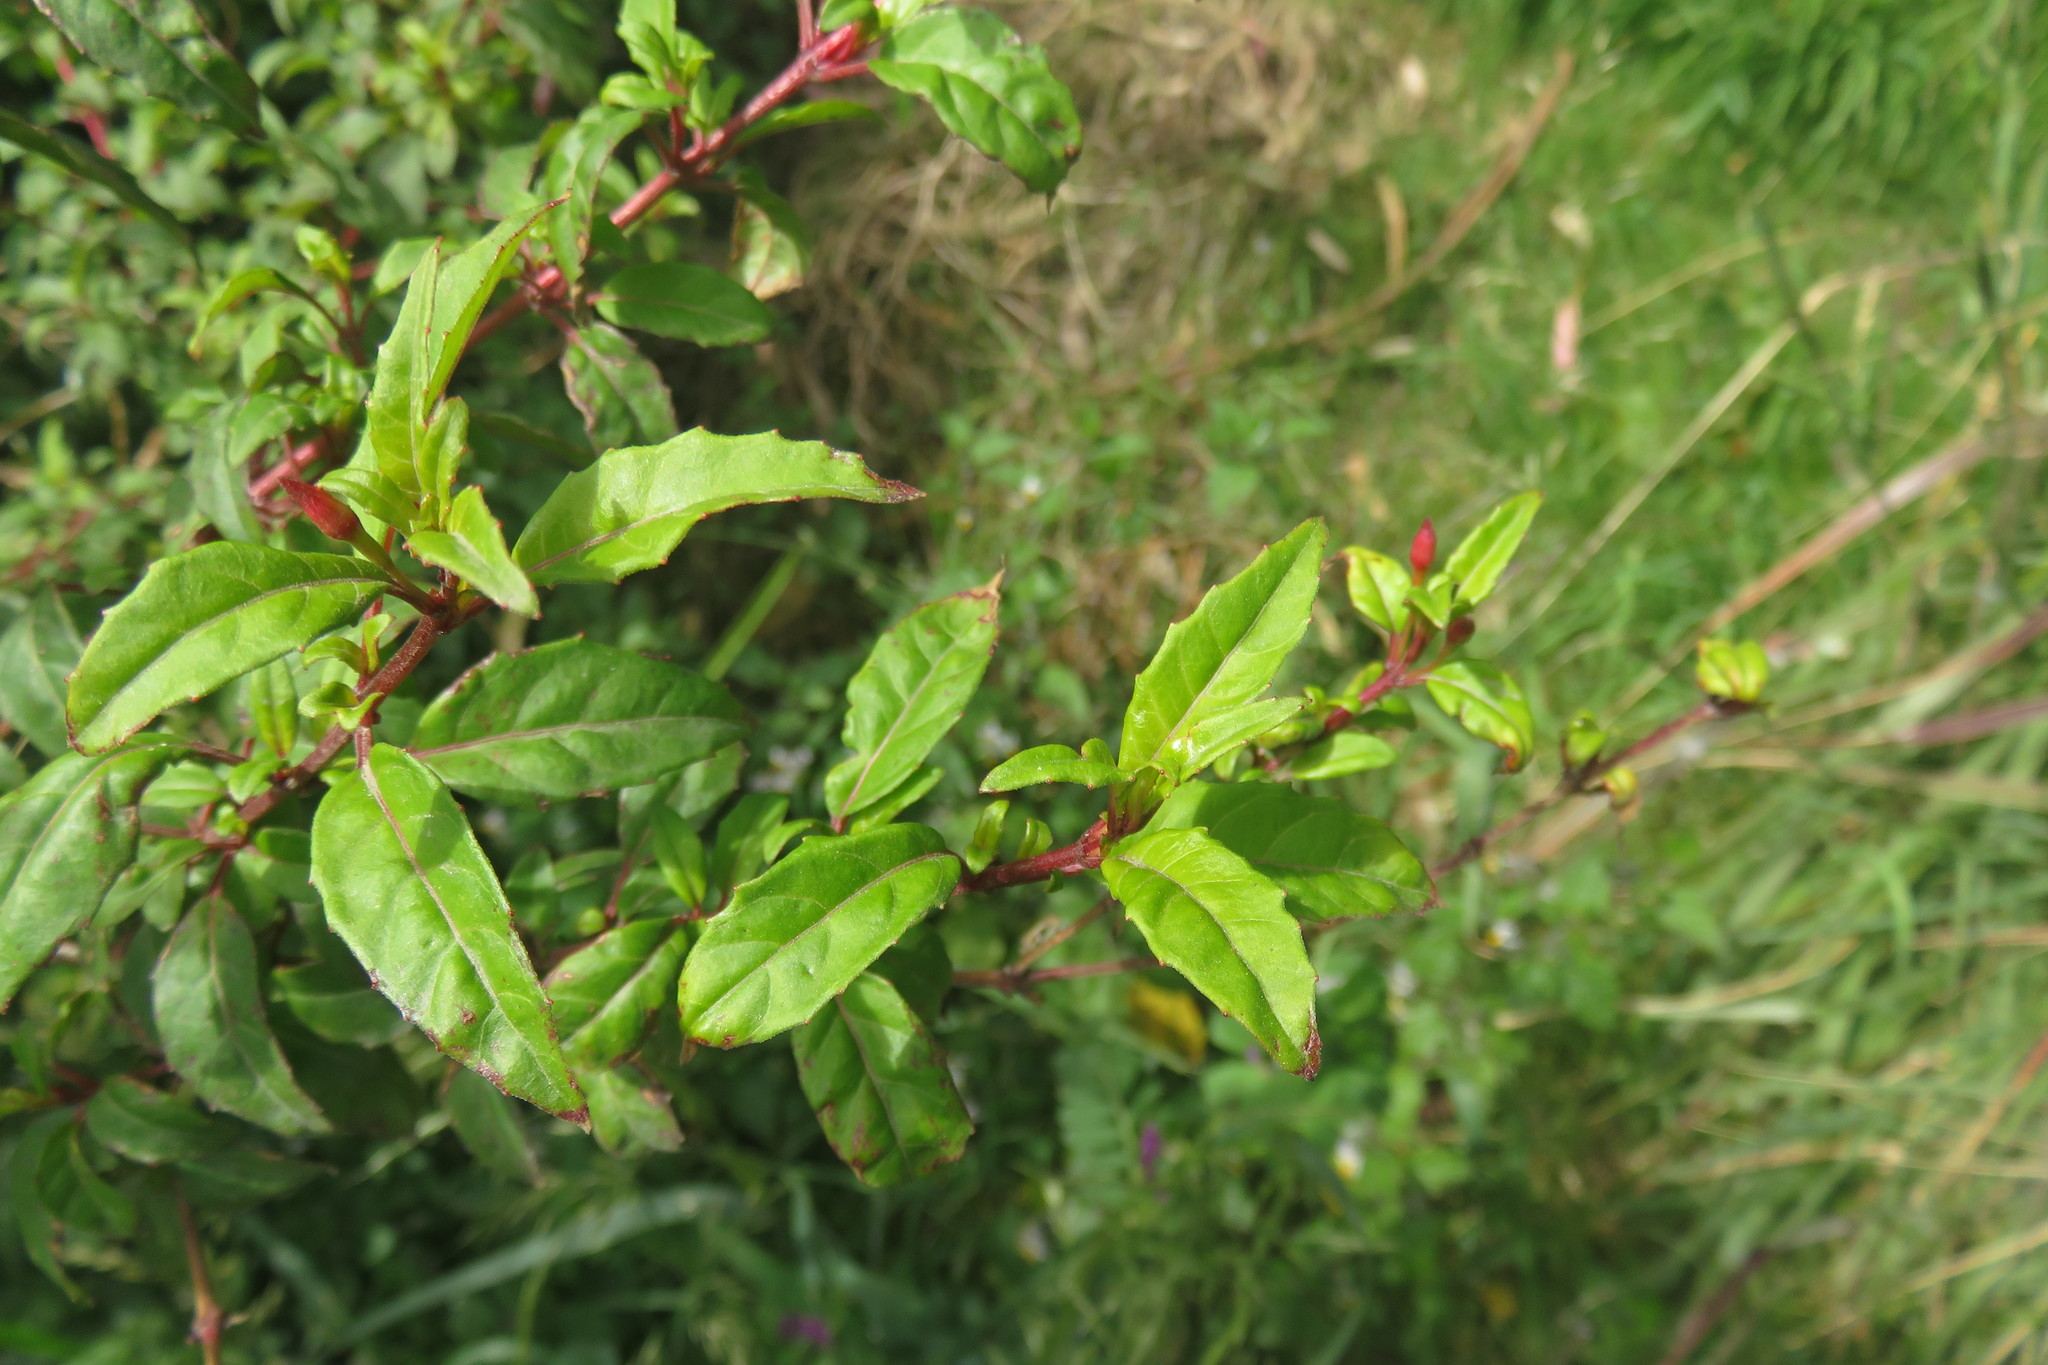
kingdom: Plantae
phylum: Tracheophyta
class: Magnoliopsida
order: Myrtales
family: Onagraceae
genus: Fuchsia
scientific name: Fuchsia magellanica
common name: Hardy fuchsia
